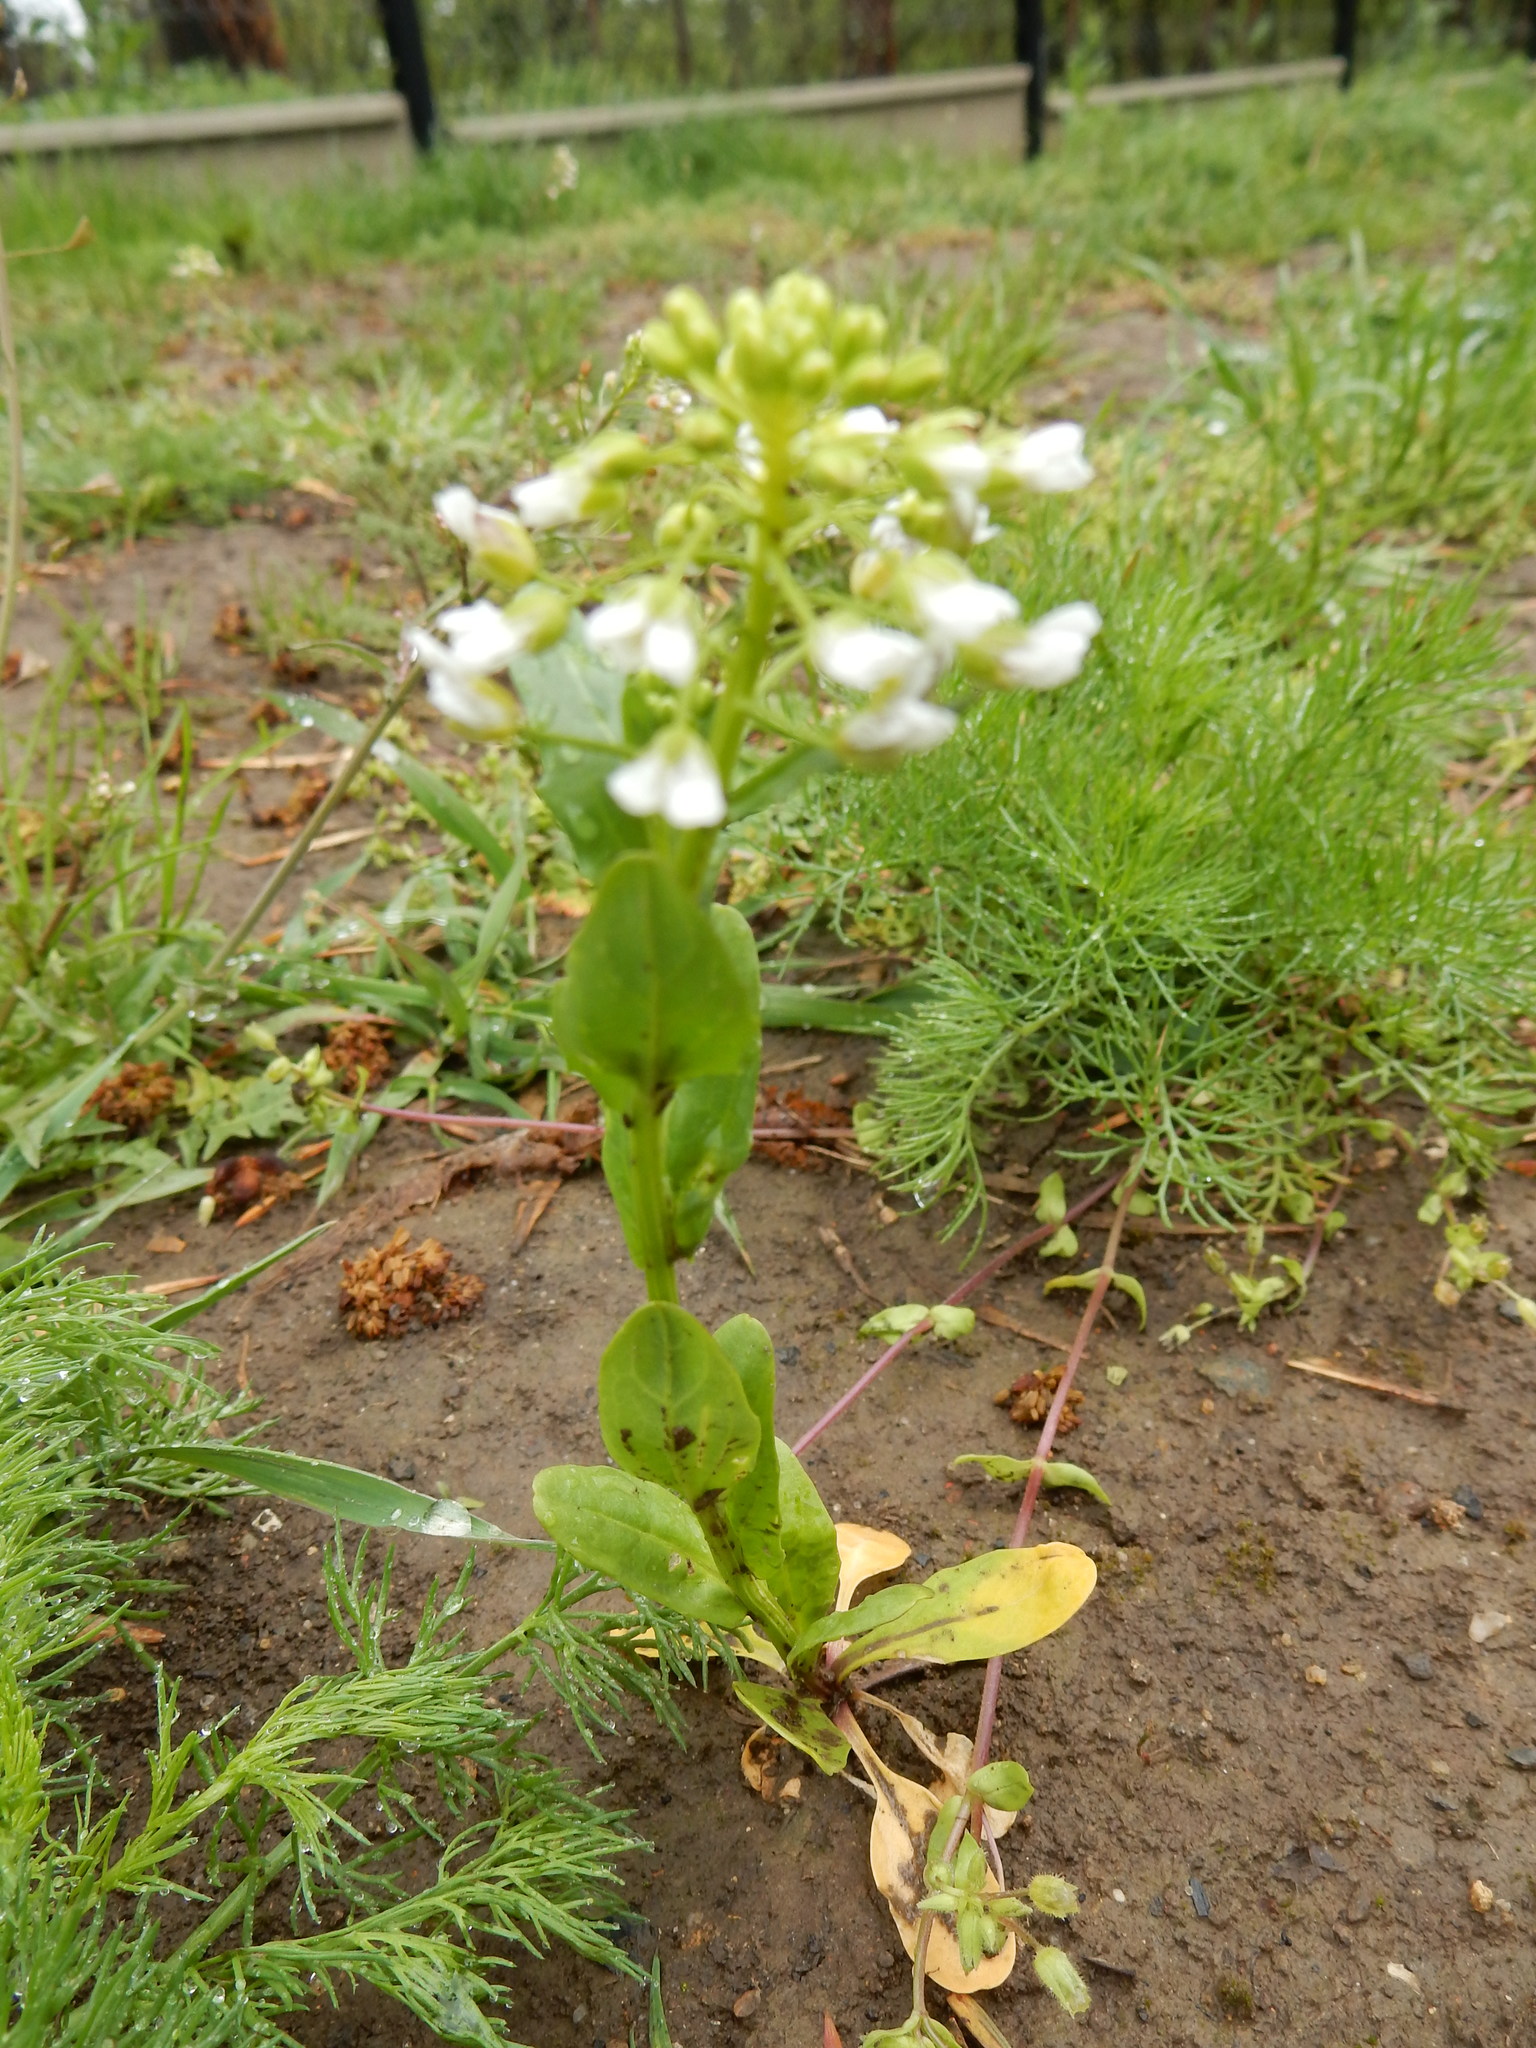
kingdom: Plantae
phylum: Tracheophyta
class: Magnoliopsida
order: Brassicales
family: Brassicaceae
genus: Thlaspi
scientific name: Thlaspi arvense
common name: Field pennycress
